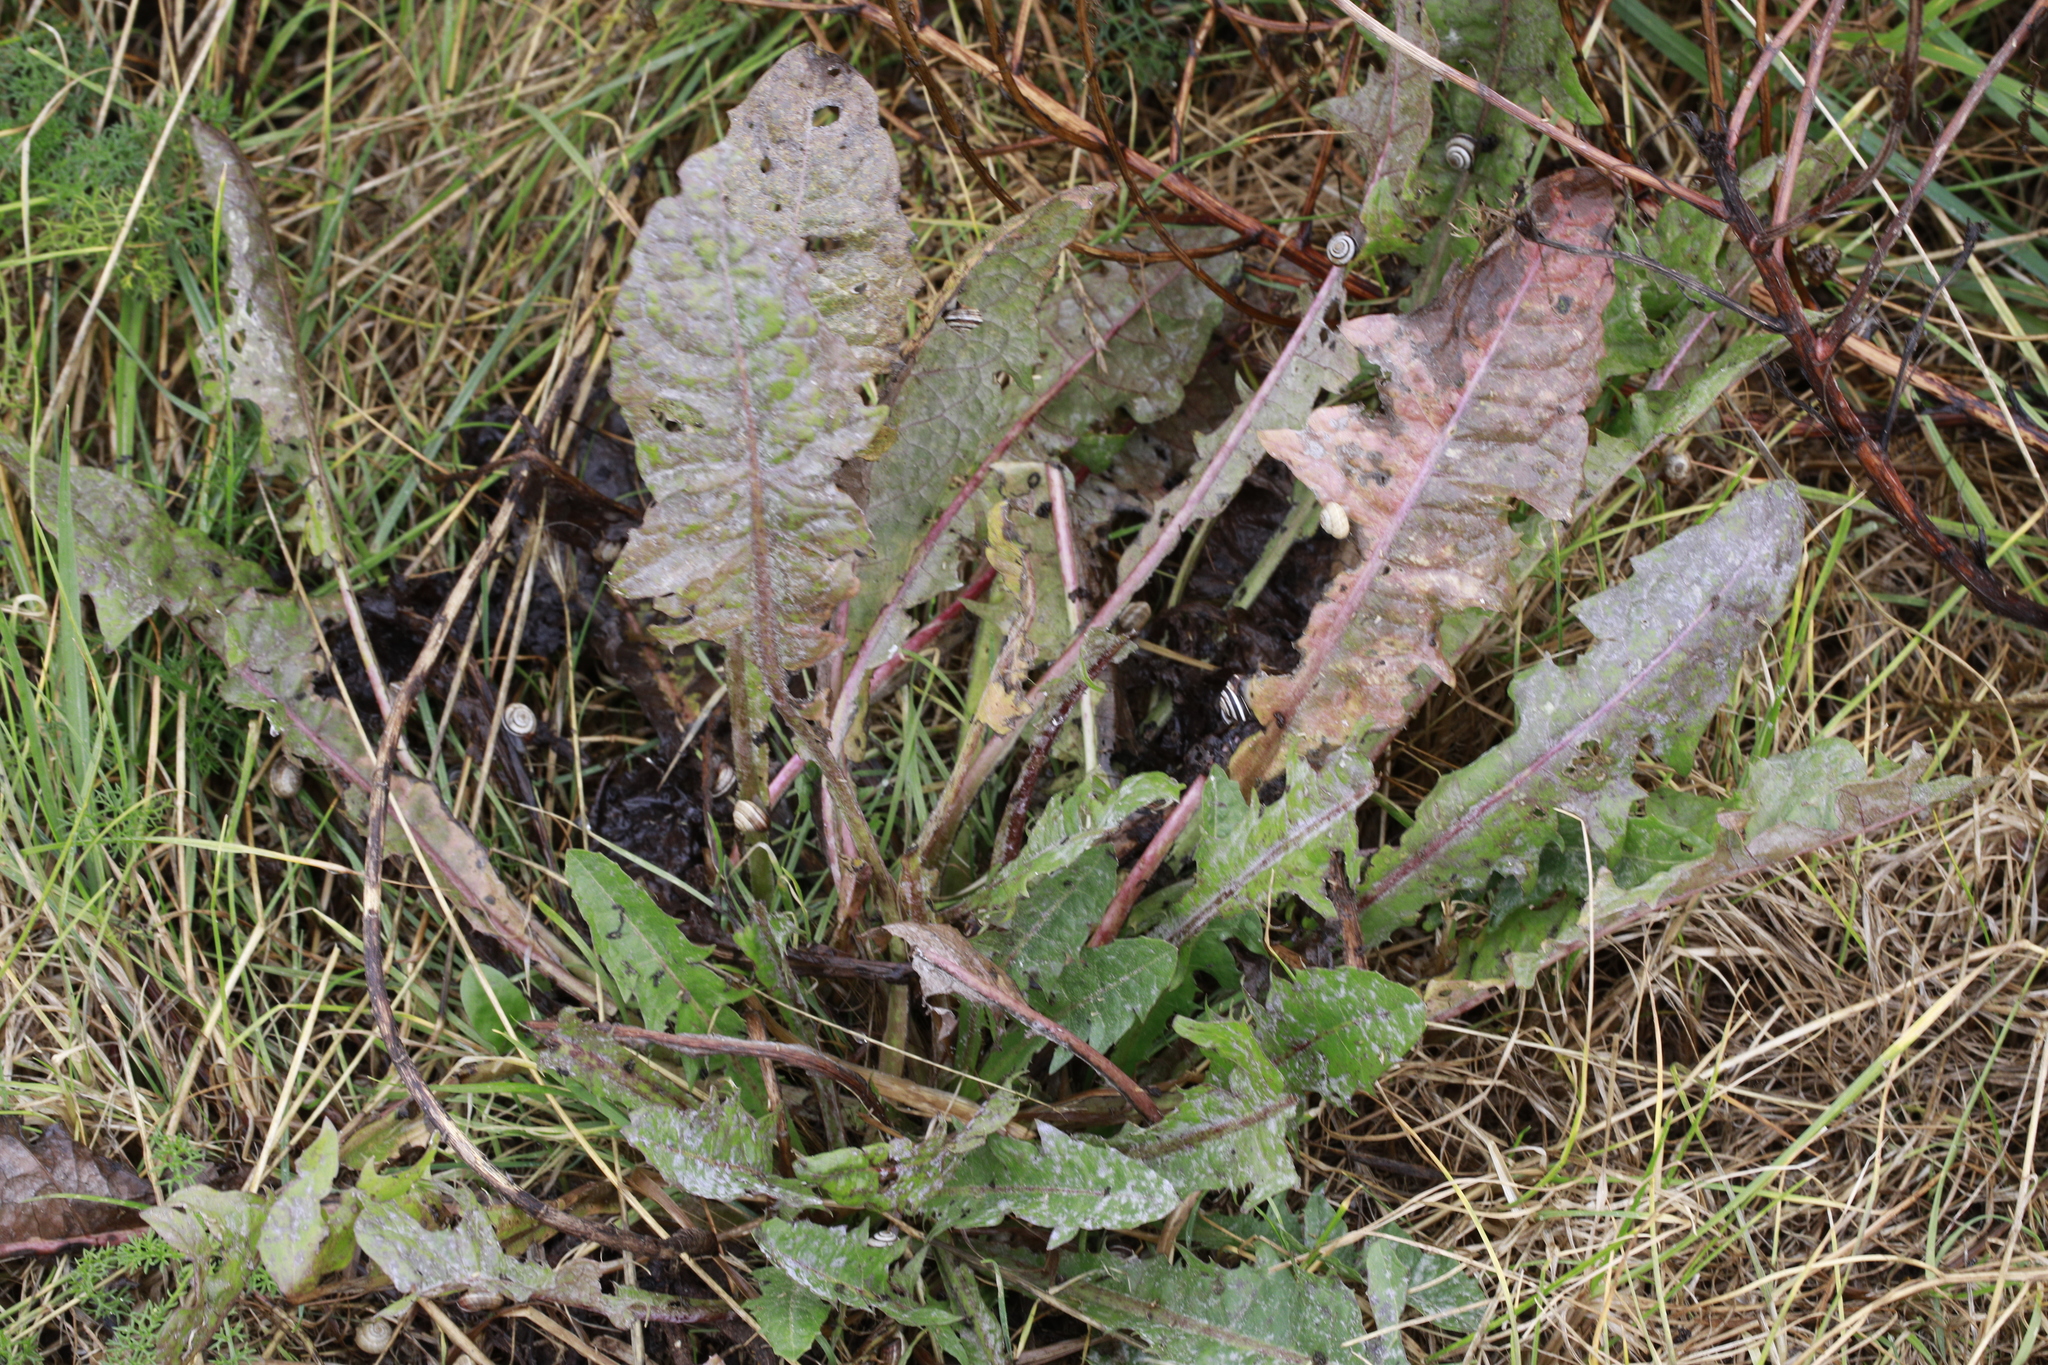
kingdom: Plantae
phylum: Tracheophyta
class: Magnoliopsida
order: Asterales
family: Asteraceae
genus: Taraxacum
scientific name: Taraxacum officinale
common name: Common dandelion
